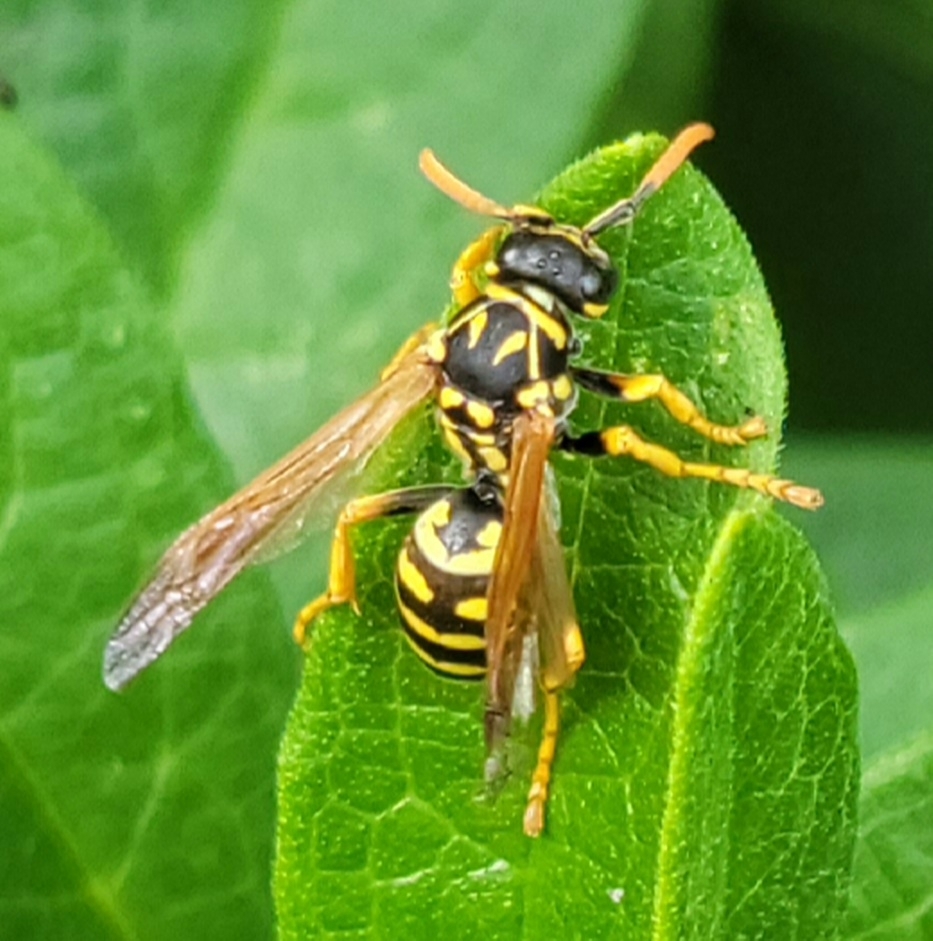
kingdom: Animalia
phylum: Arthropoda
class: Insecta
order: Hymenoptera
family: Eumenidae
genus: Polistes
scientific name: Polistes dominula
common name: Paper wasp
